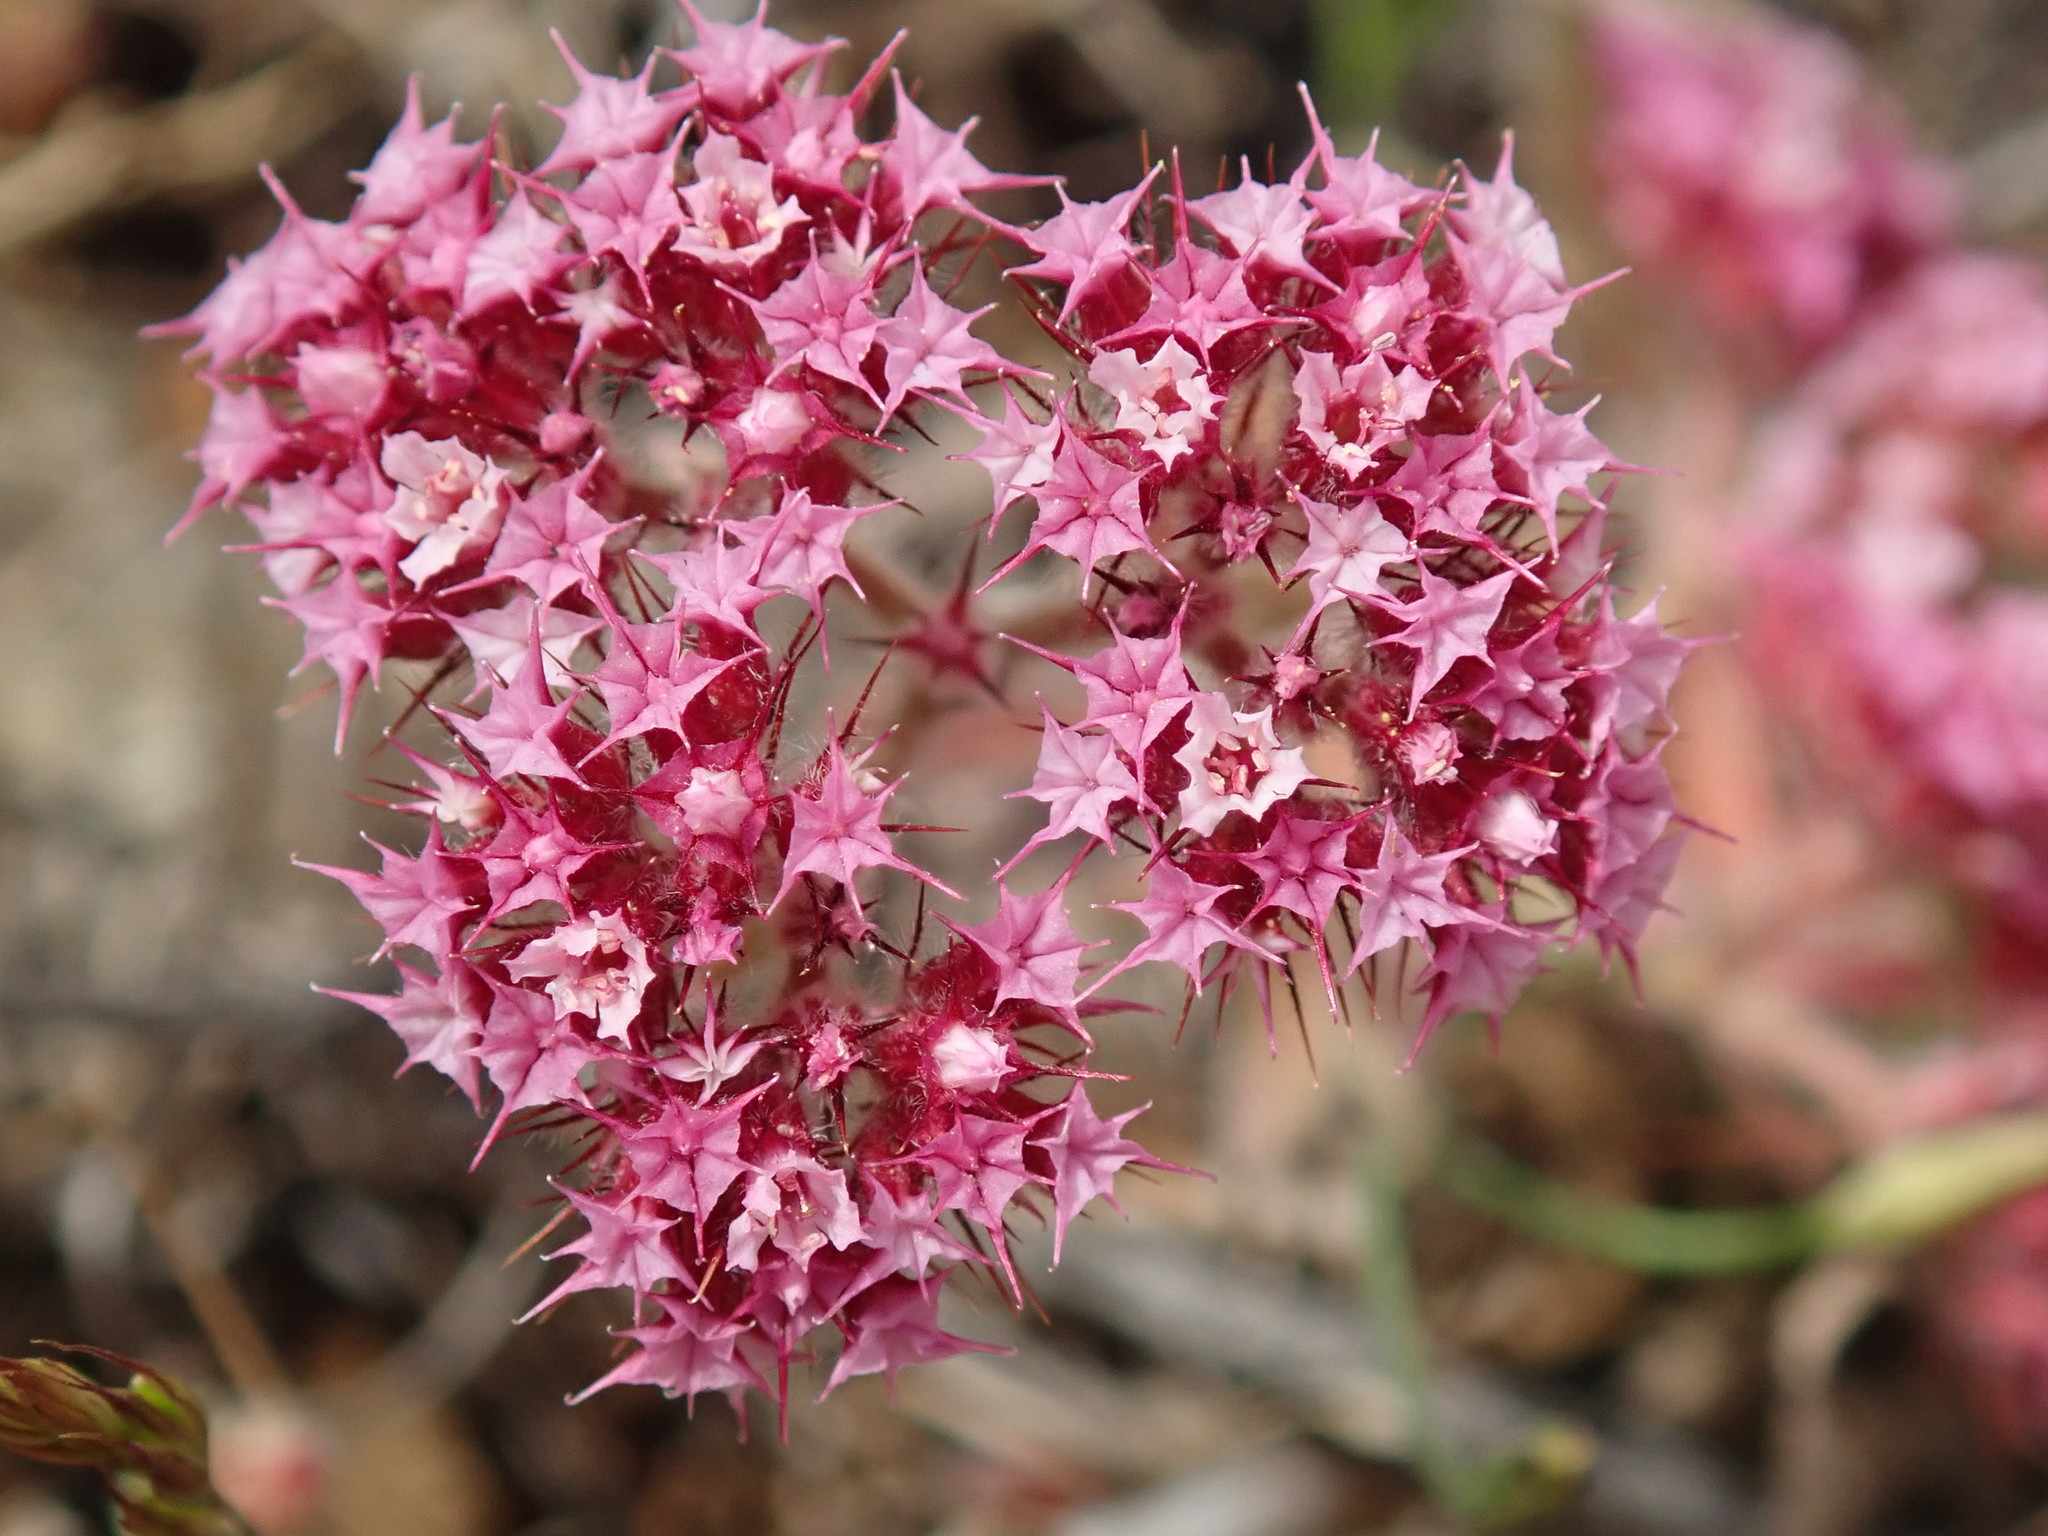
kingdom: Plantae
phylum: Tracheophyta
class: Magnoliopsida
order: Caryophyllales
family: Polygonaceae
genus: Chorizanthe
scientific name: Chorizanthe douglasii
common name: Douglas's spineflower
